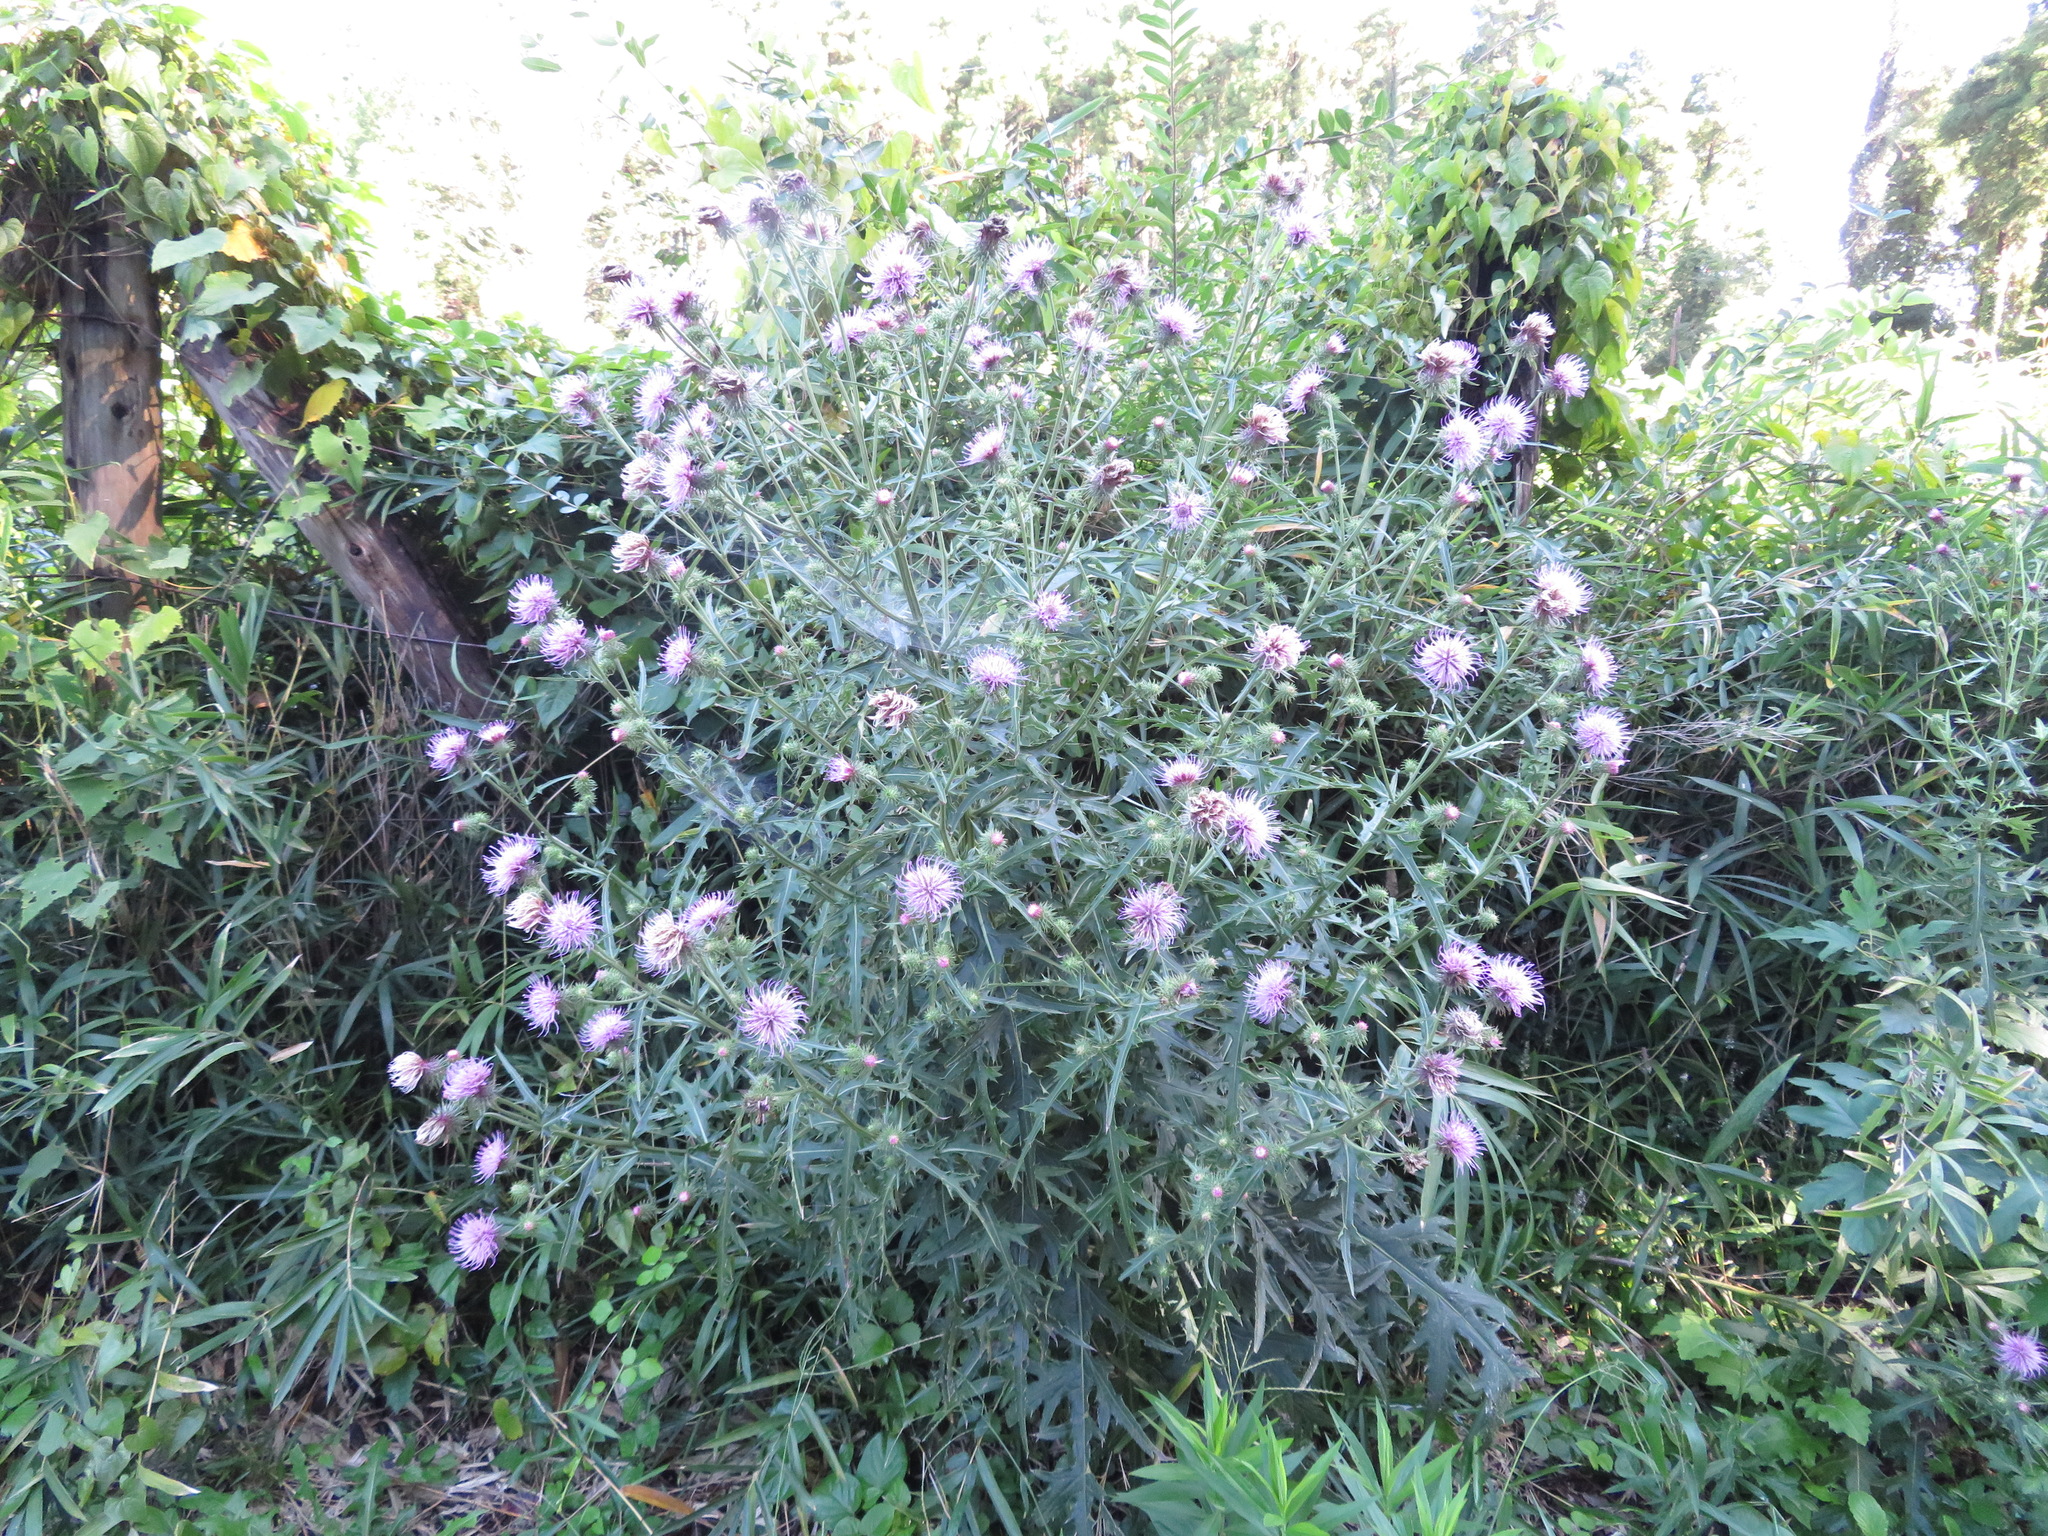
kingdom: Plantae
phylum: Tracheophyta
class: Magnoliopsida
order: Asterales
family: Asteraceae
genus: Cirsium
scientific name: Cirsium nipponicum
